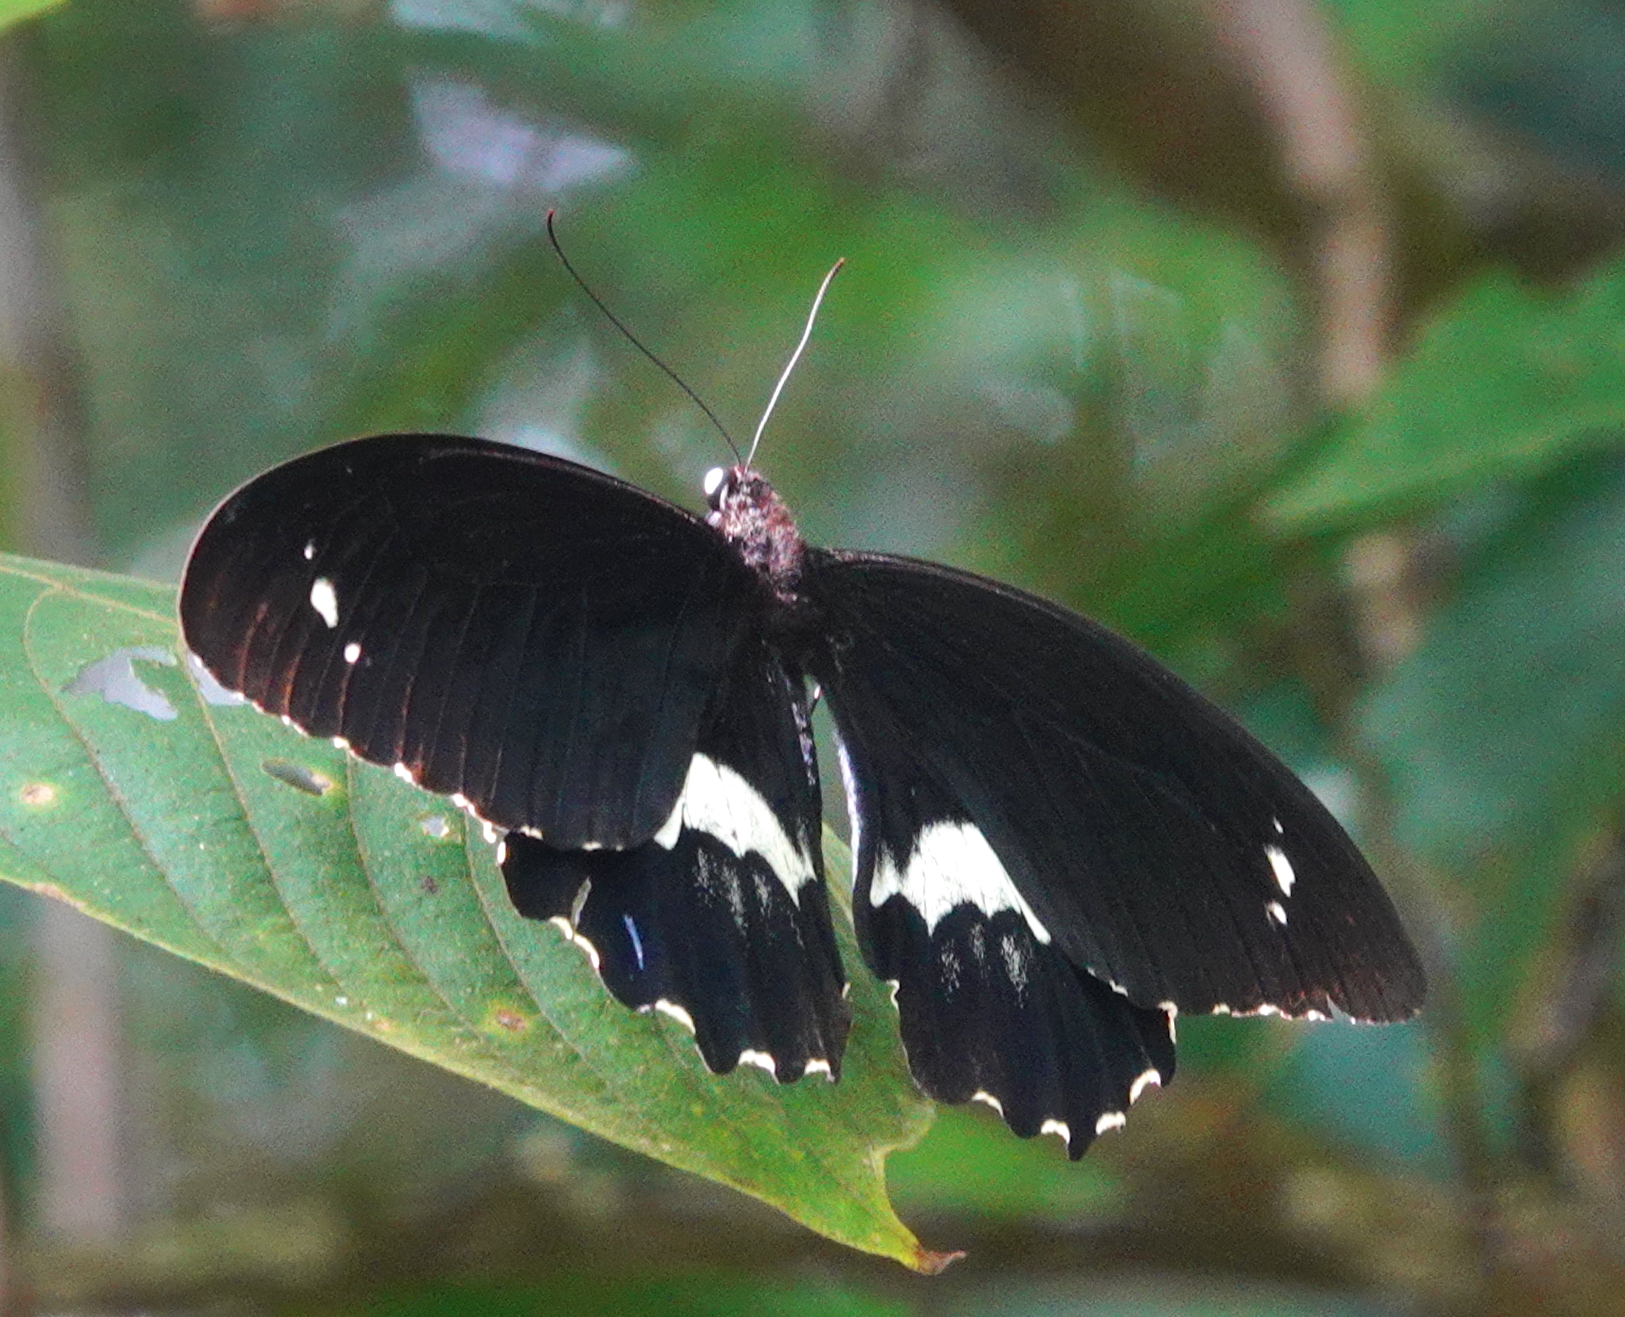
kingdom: Animalia
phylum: Arthropoda
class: Insecta
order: Lepidoptera
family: Papilionidae
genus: Papilio
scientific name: Papilio gambrisius
